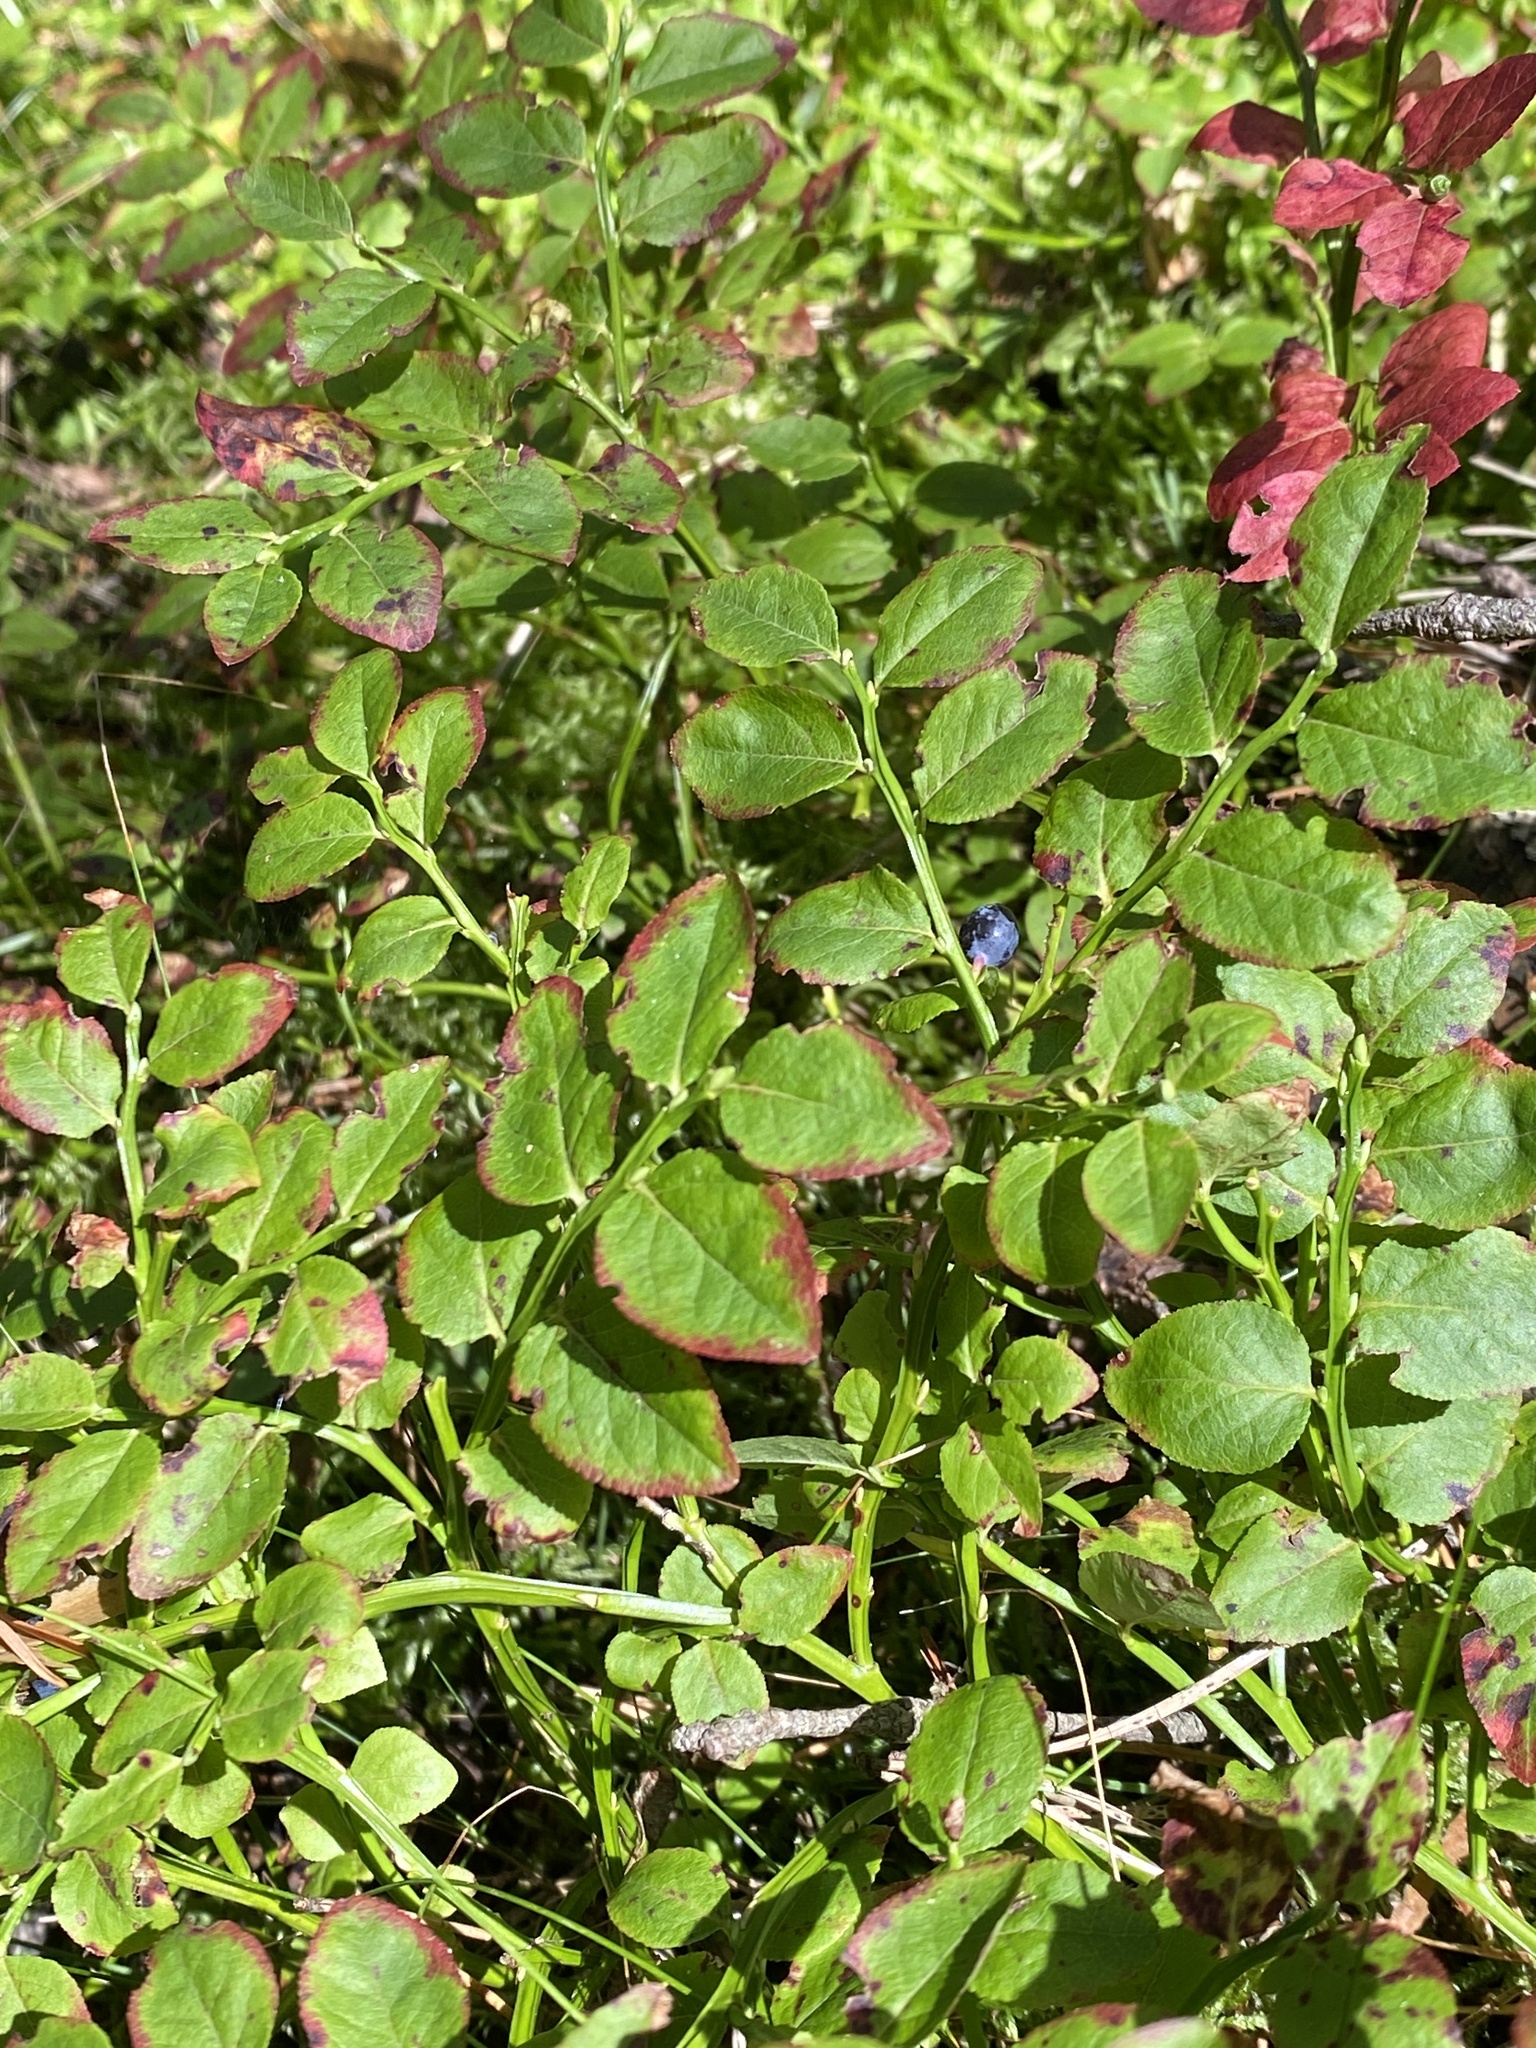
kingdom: Plantae
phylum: Tracheophyta
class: Magnoliopsida
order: Ericales
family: Ericaceae
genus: Vaccinium
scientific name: Vaccinium myrtillus
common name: Bilberry
